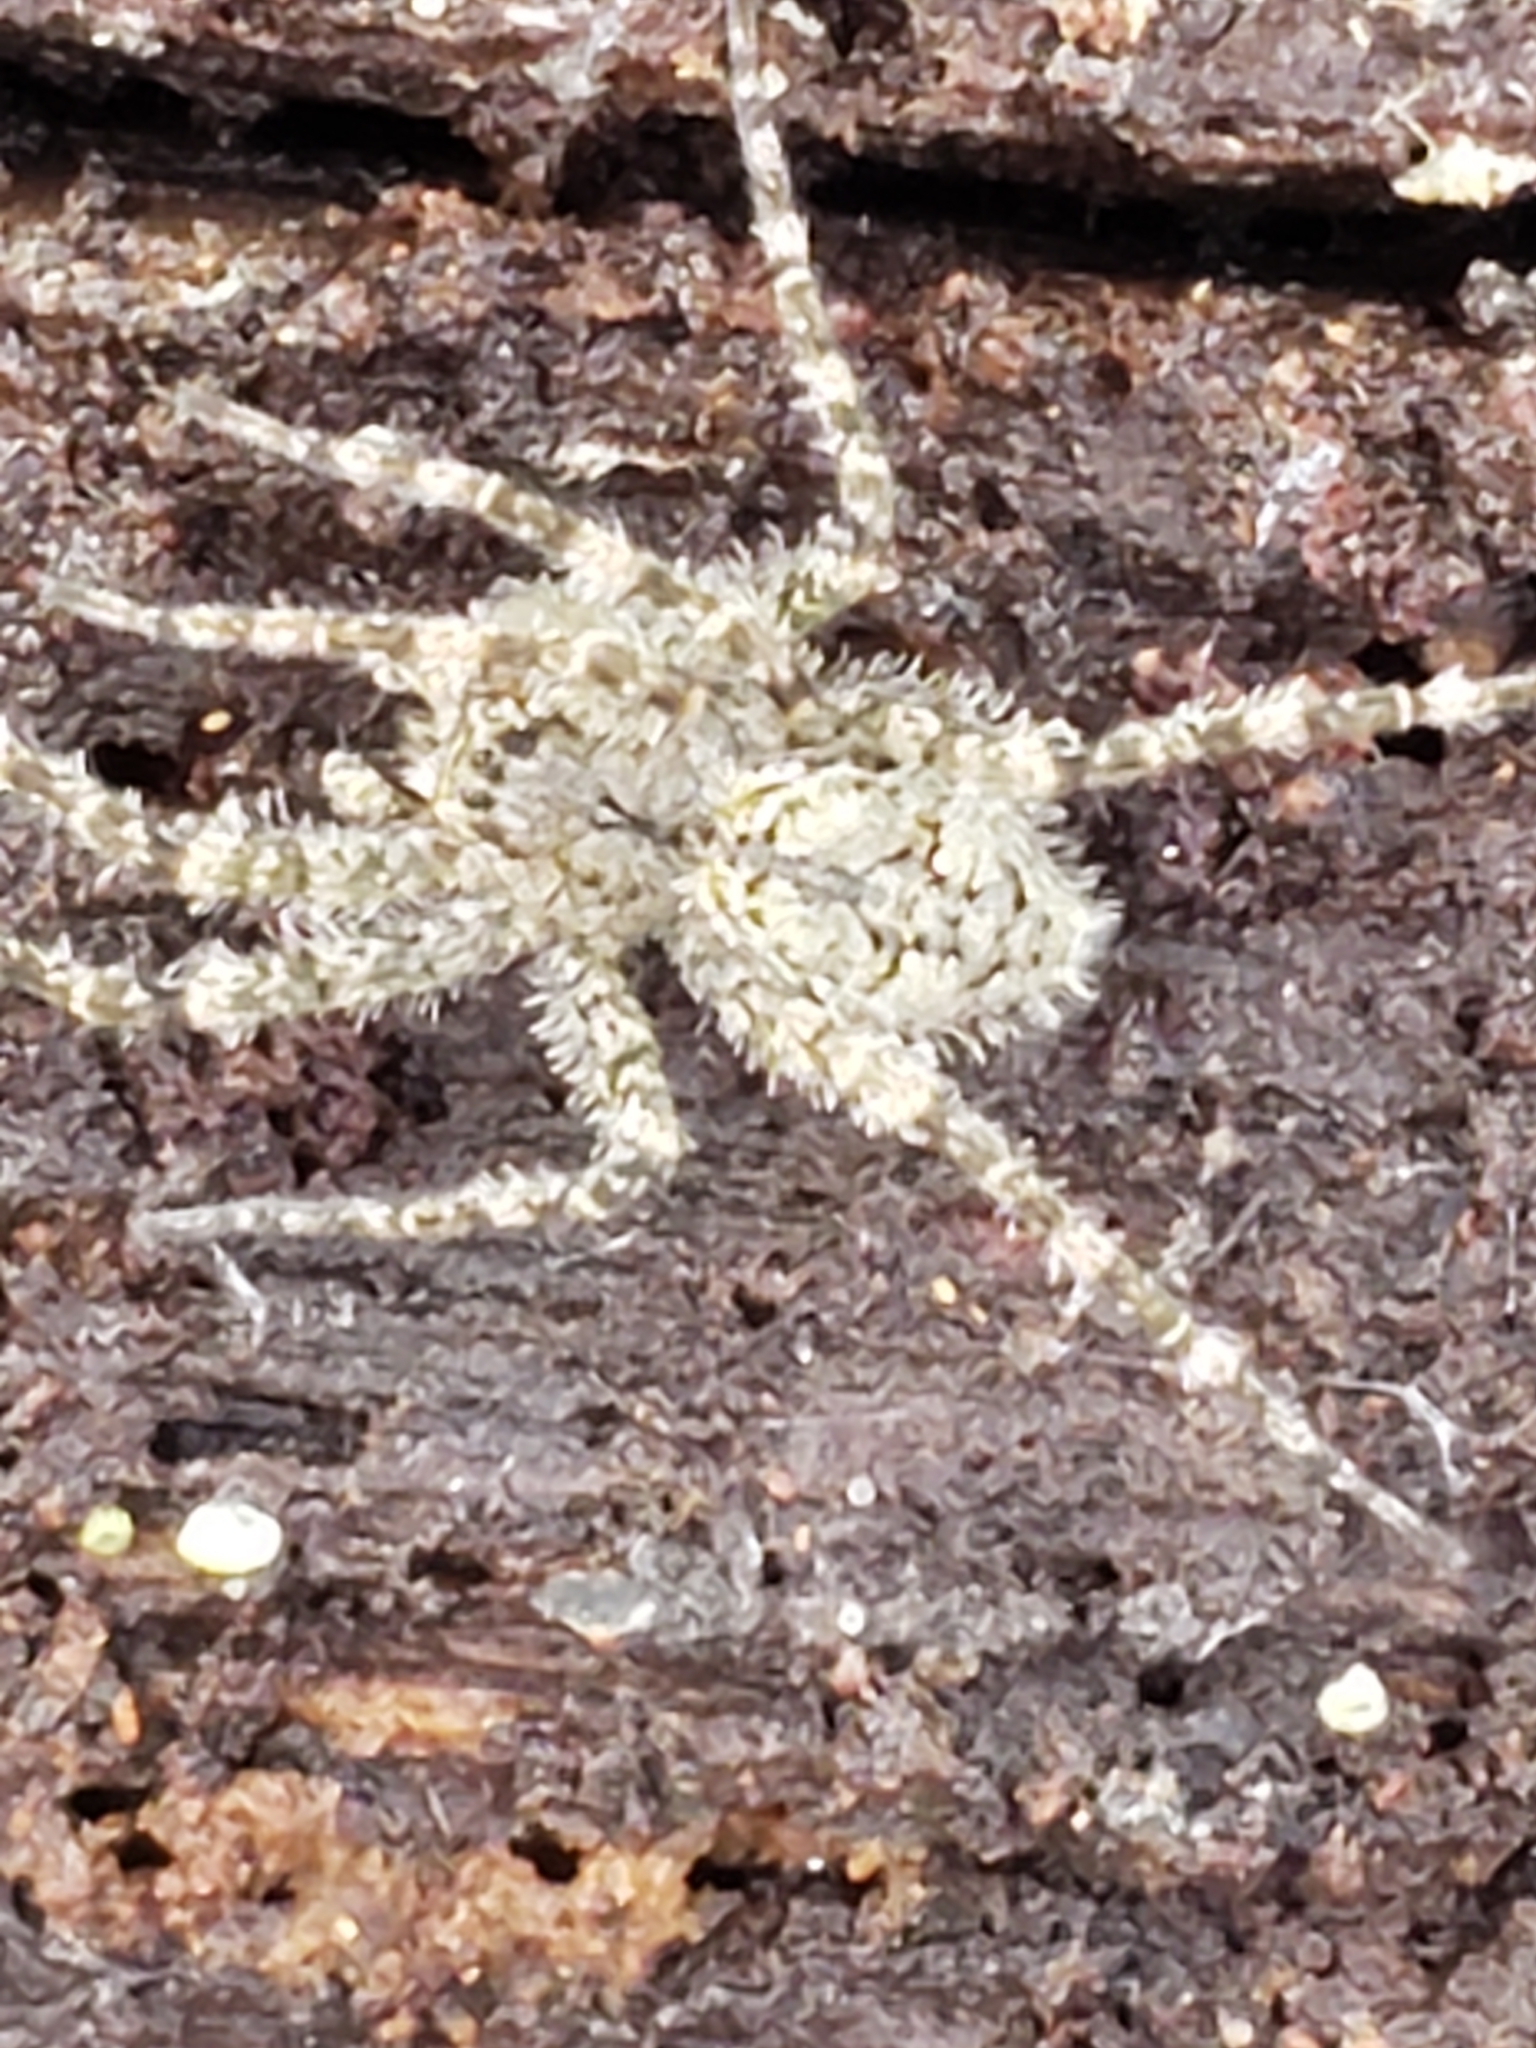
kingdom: Animalia
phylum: Arthropoda
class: Arachnida
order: Araneae
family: Pisauridae
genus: Dolomedes
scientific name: Dolomedes albineus
